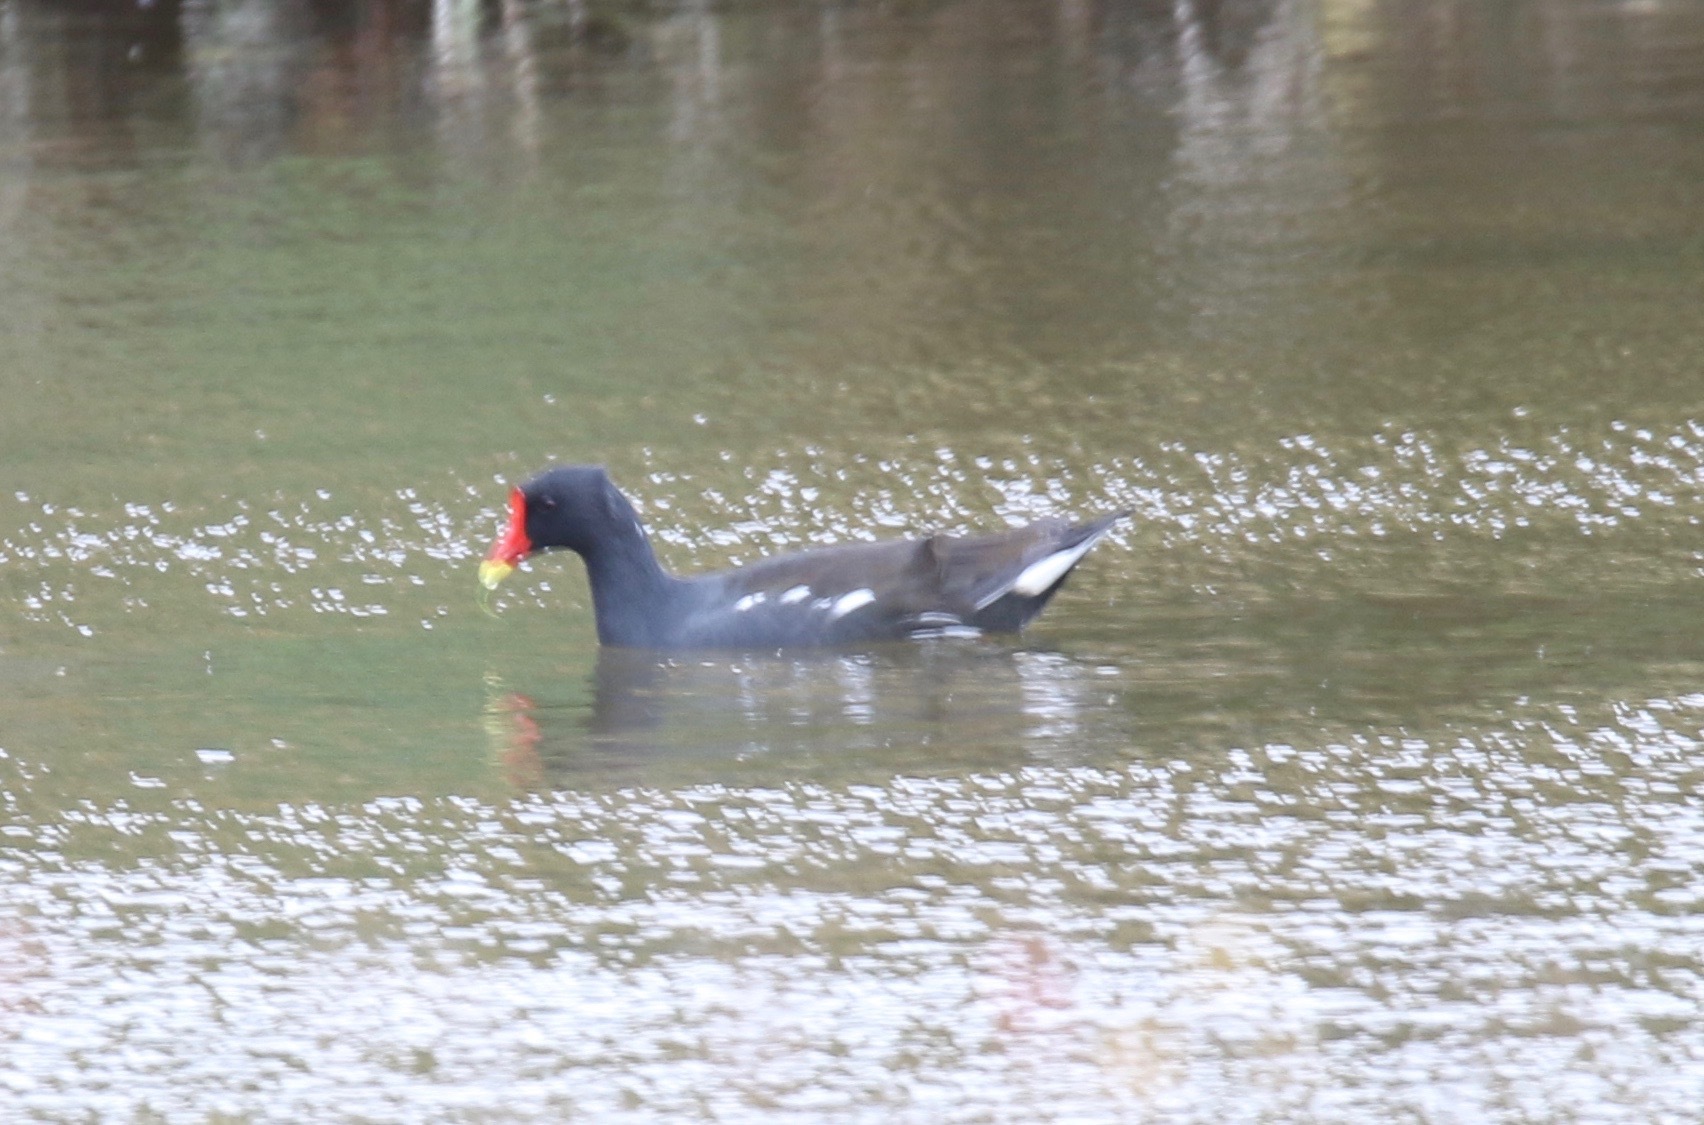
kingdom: Animalia
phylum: Chordata
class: Aves
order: Gruiformes
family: Rallidae
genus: Gallinula
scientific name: Gallinula chloropus
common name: Common moorhen
